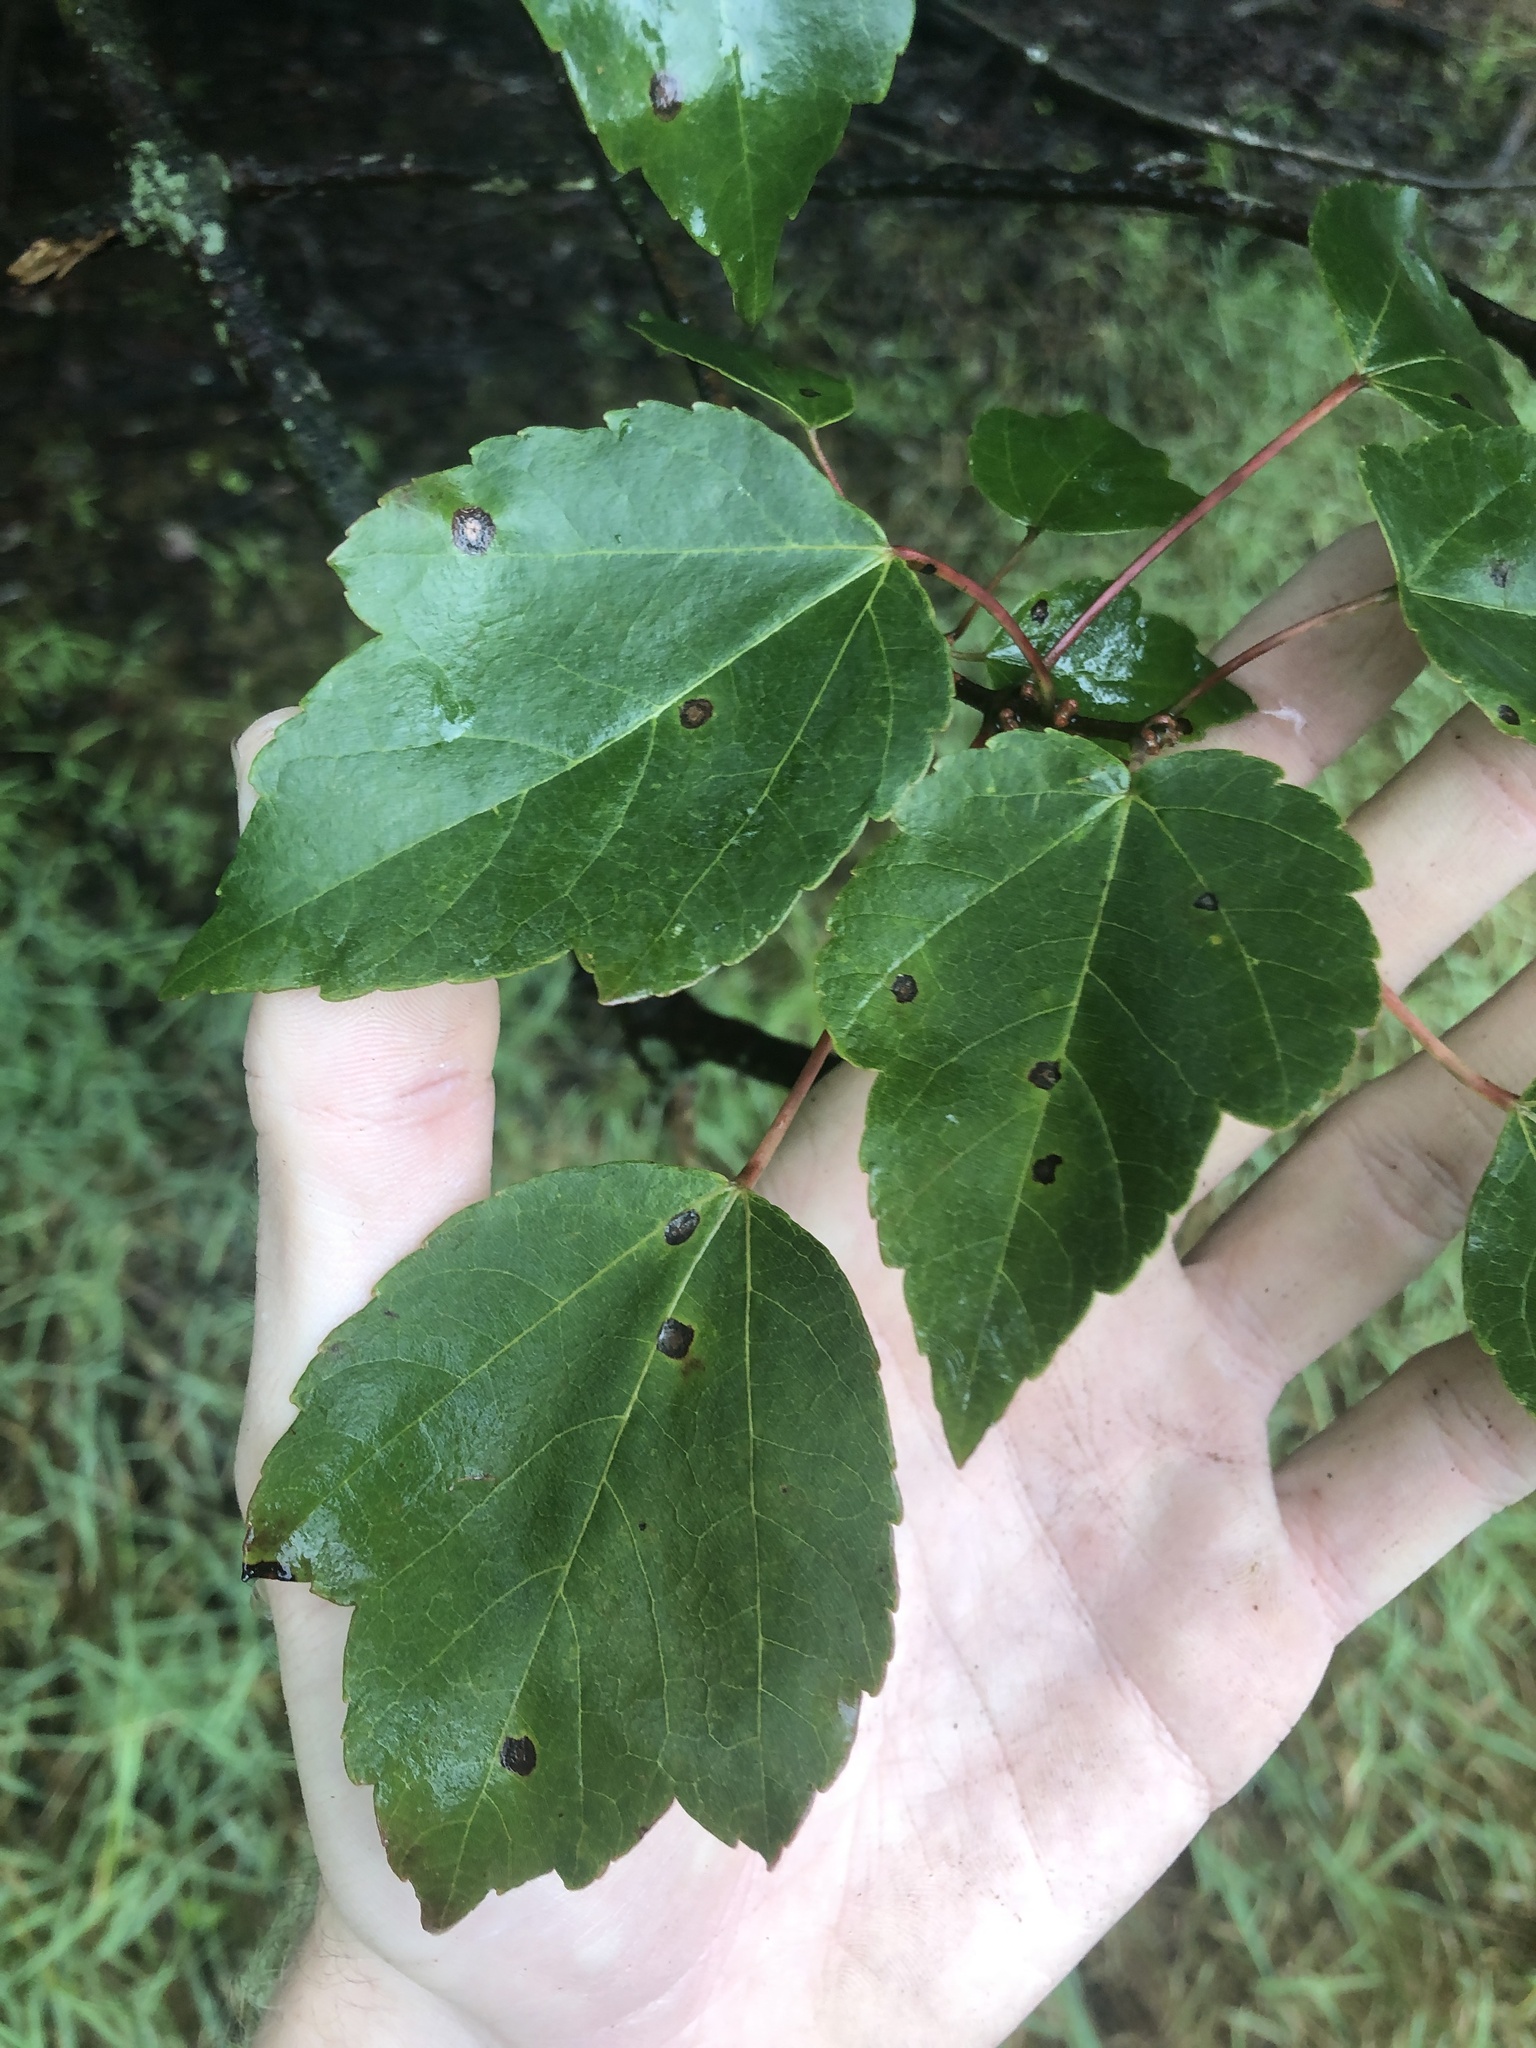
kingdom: Plantae
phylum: Tracheophyta
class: Magnoliopsida
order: Sapindales
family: Sapindaceae
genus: Acer
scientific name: Acer rubrum
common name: Red maple
